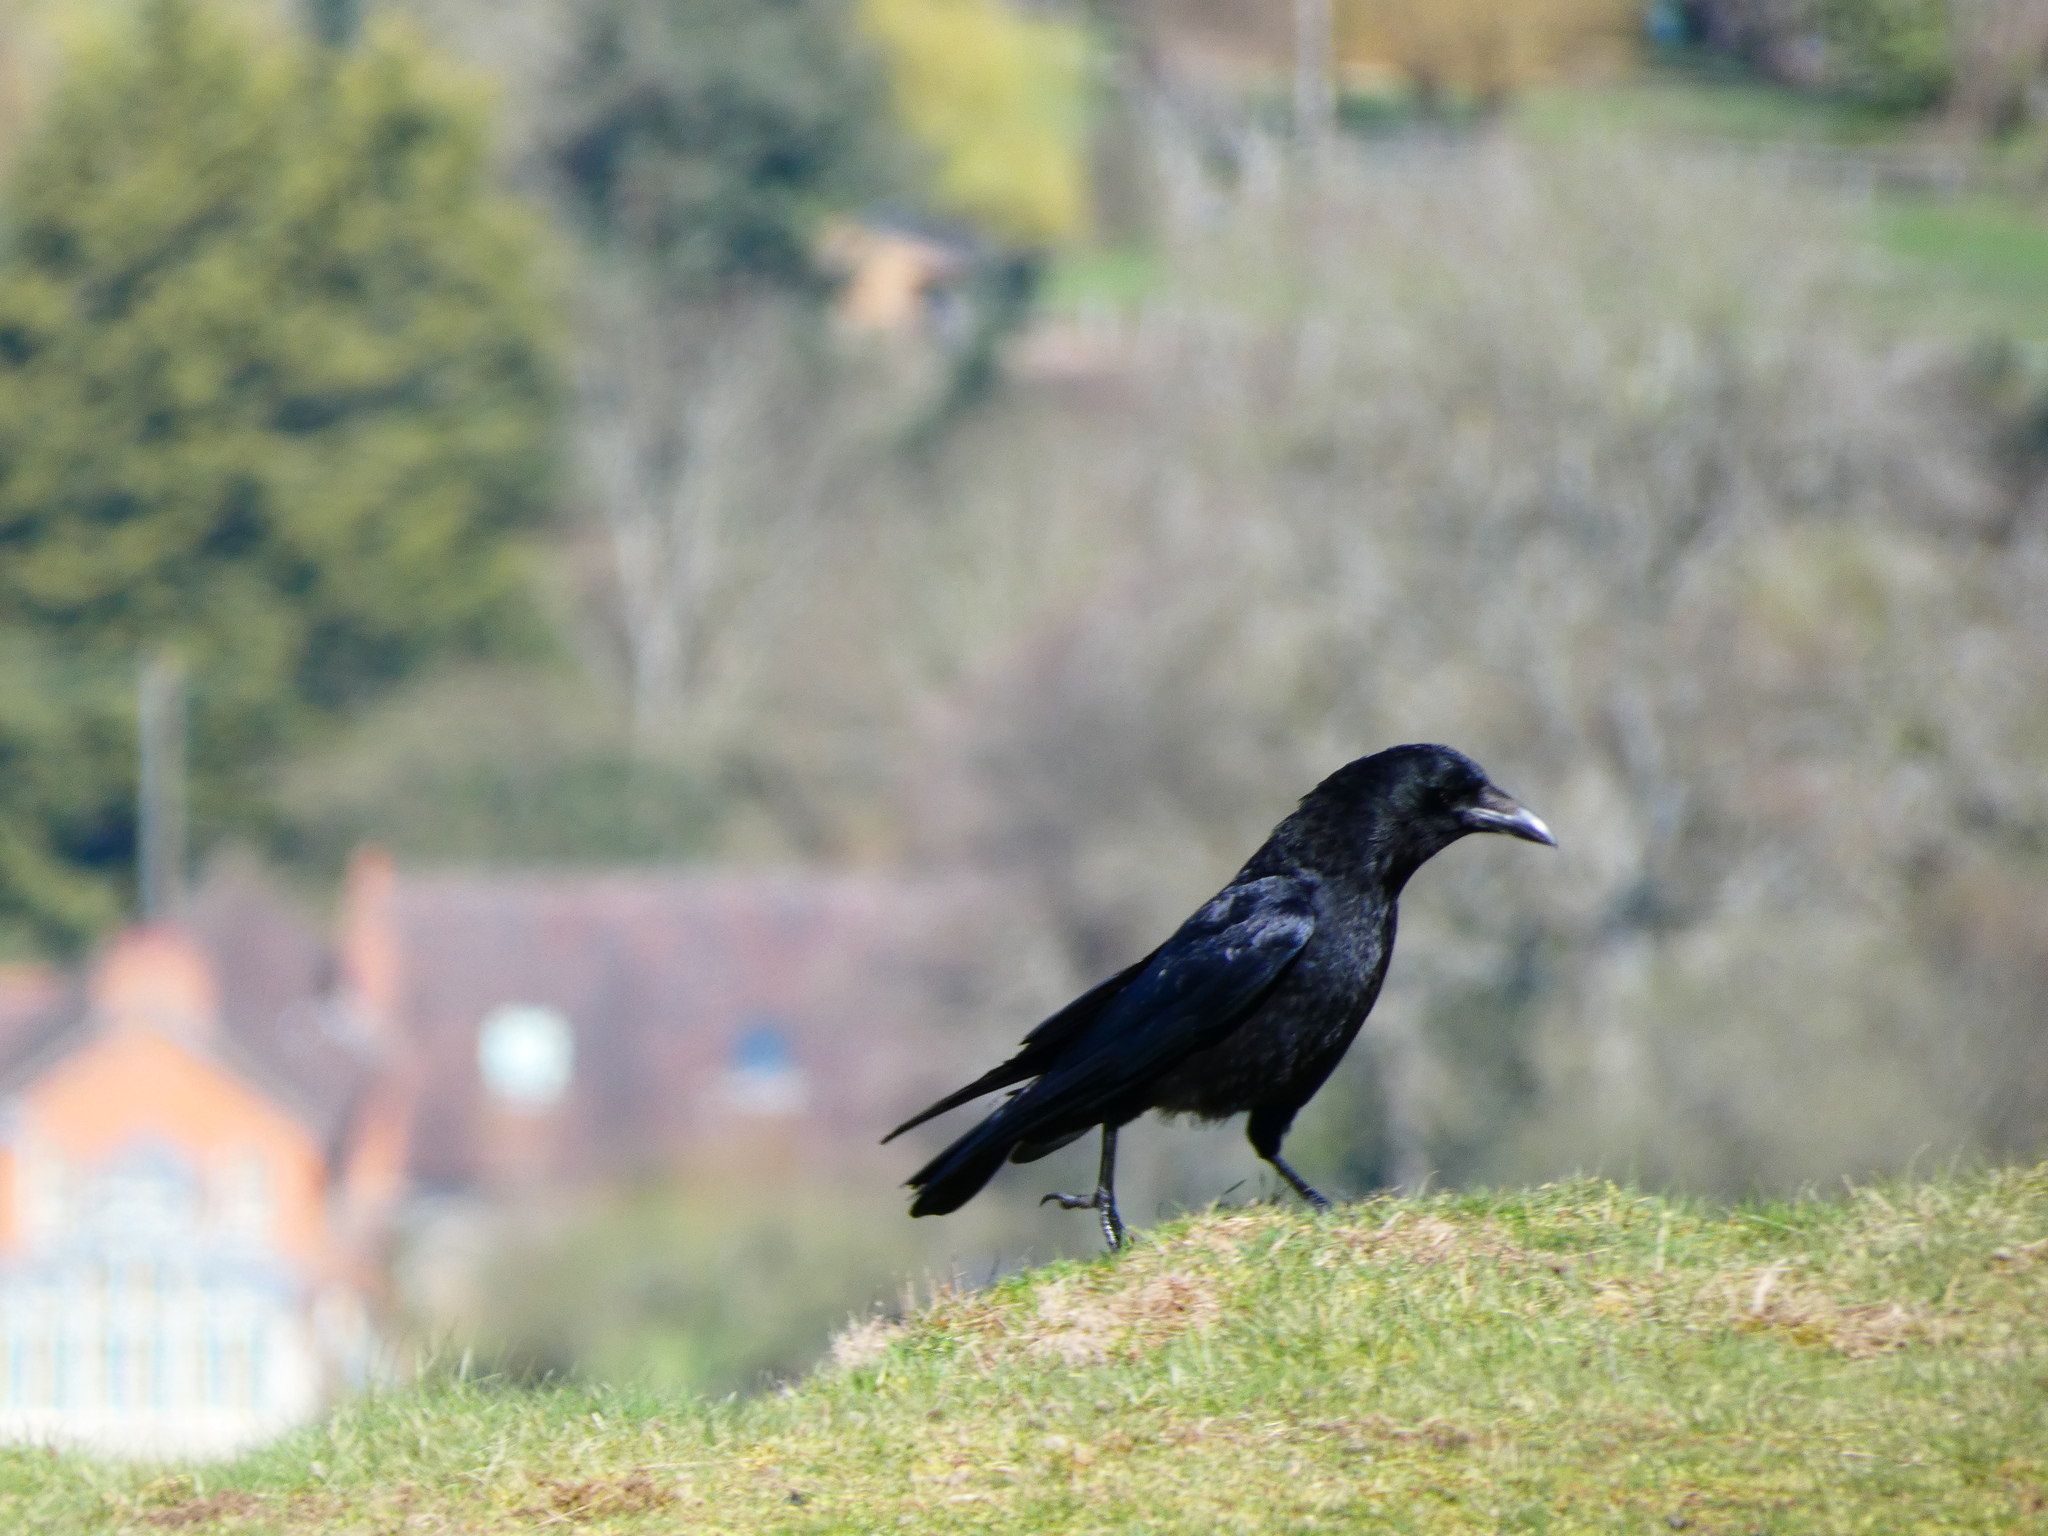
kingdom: Animalia
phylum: Chordata
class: Aves
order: Passeriformes
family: Corvidae
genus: Corvus
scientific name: Corvus corone
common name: Carrion crow
